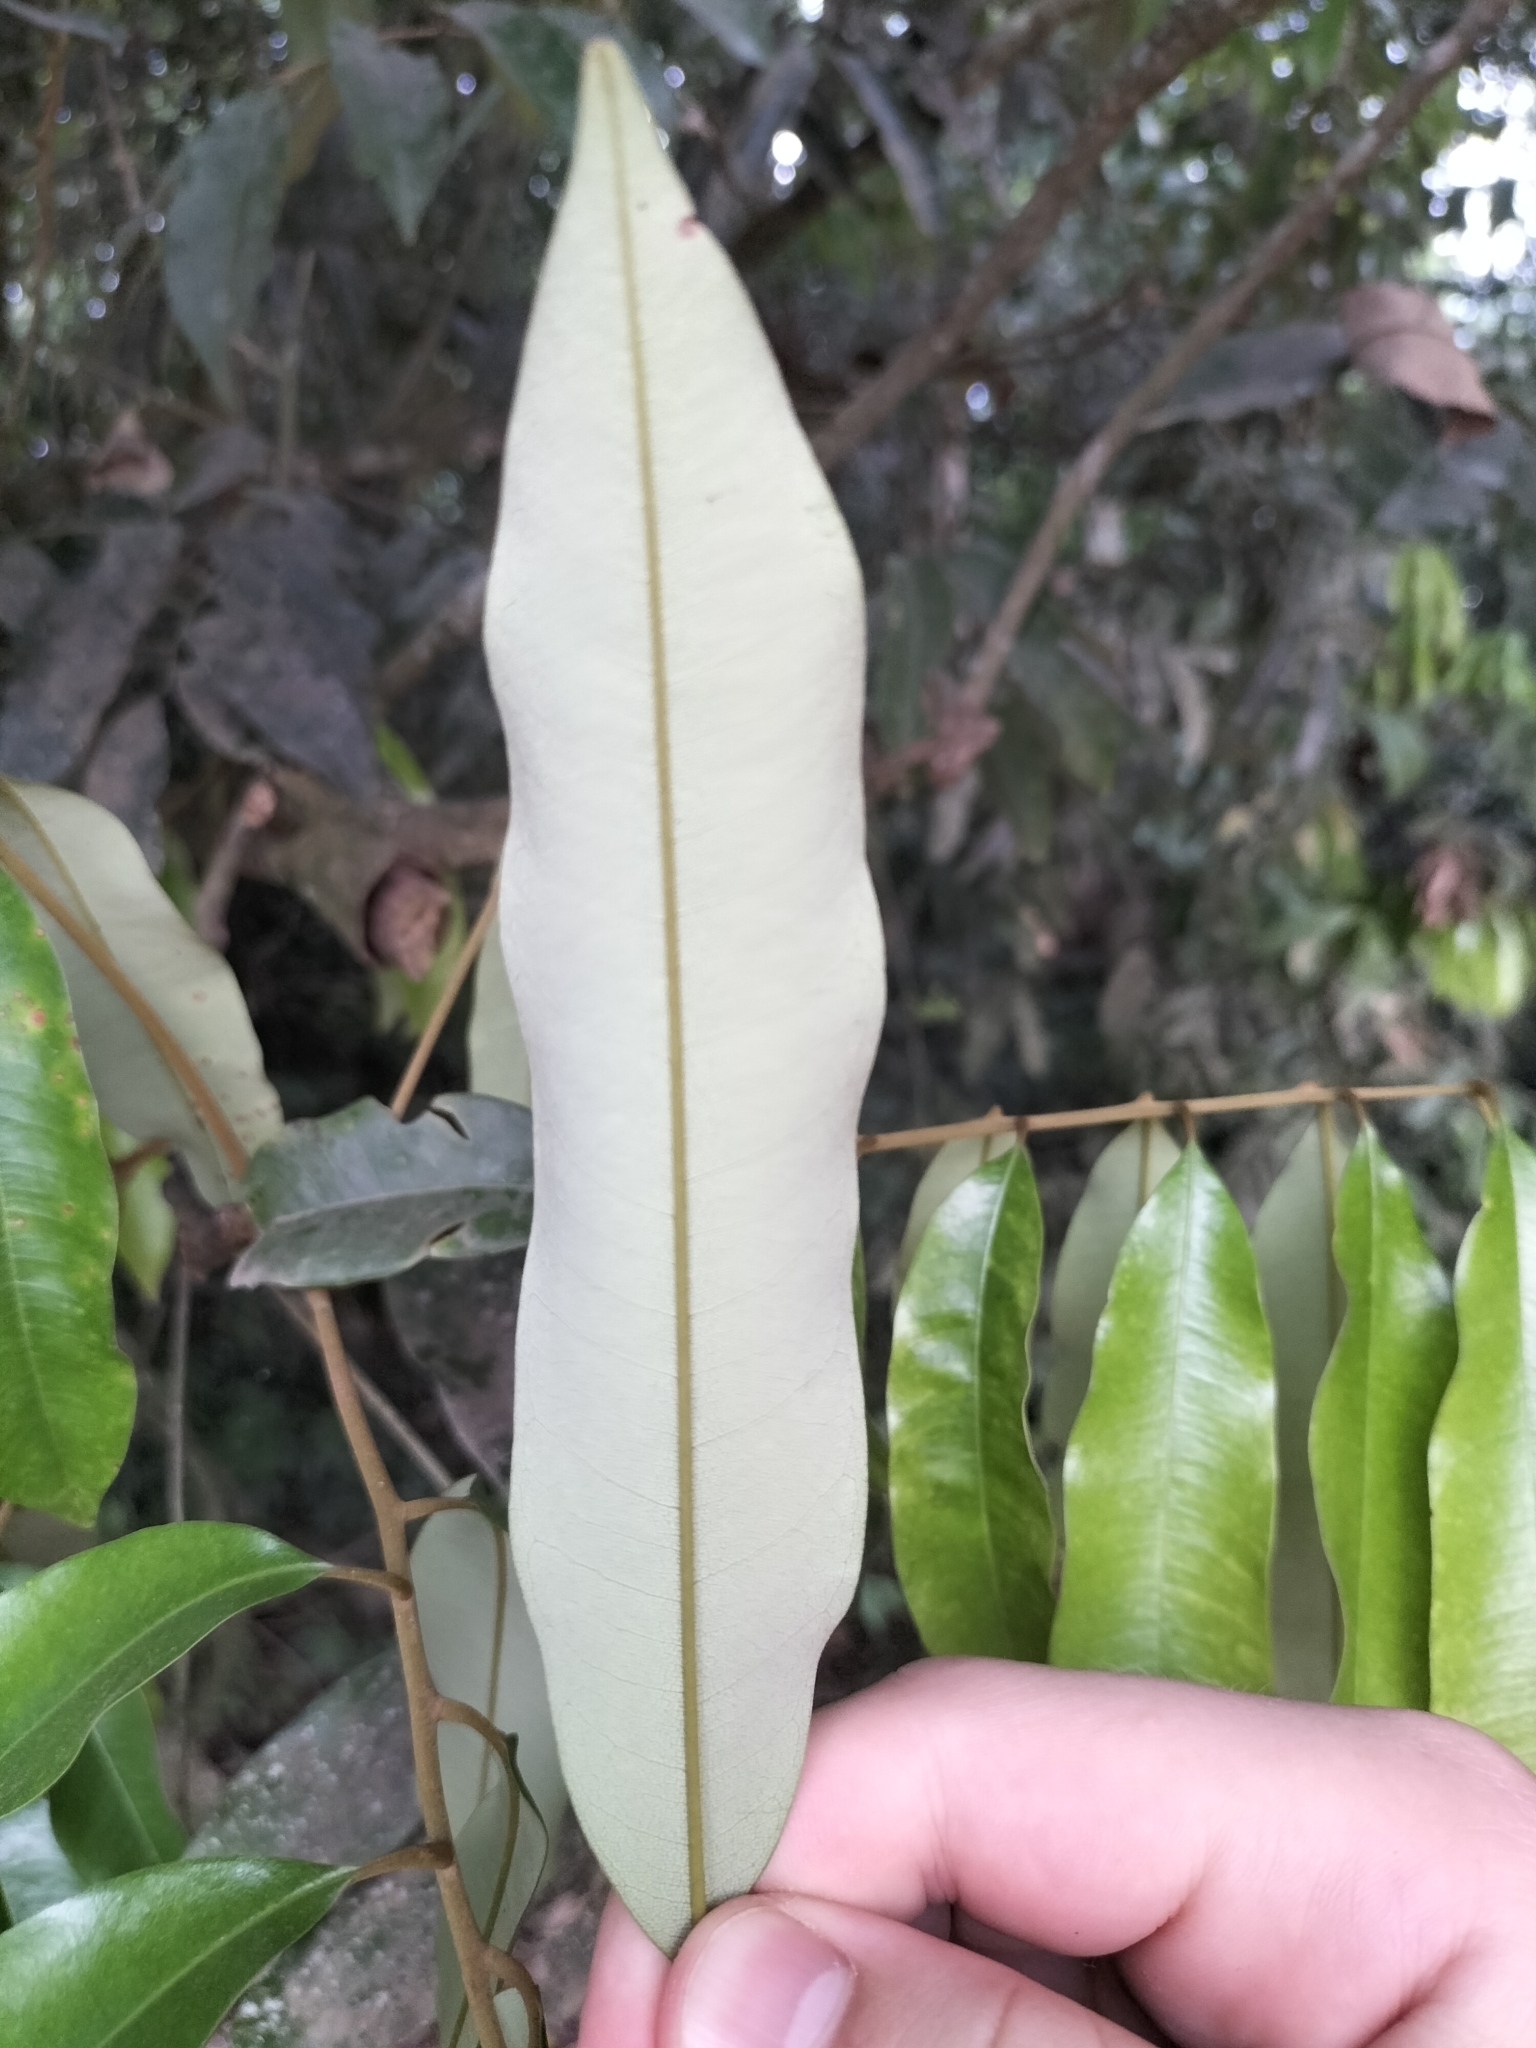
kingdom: Plantae
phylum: Tracheophyta
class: Magnoliopsida
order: Sapindales
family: Sapindaceae
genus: Castanospora
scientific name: Castanospora alphandii
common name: Brown-tamarind
